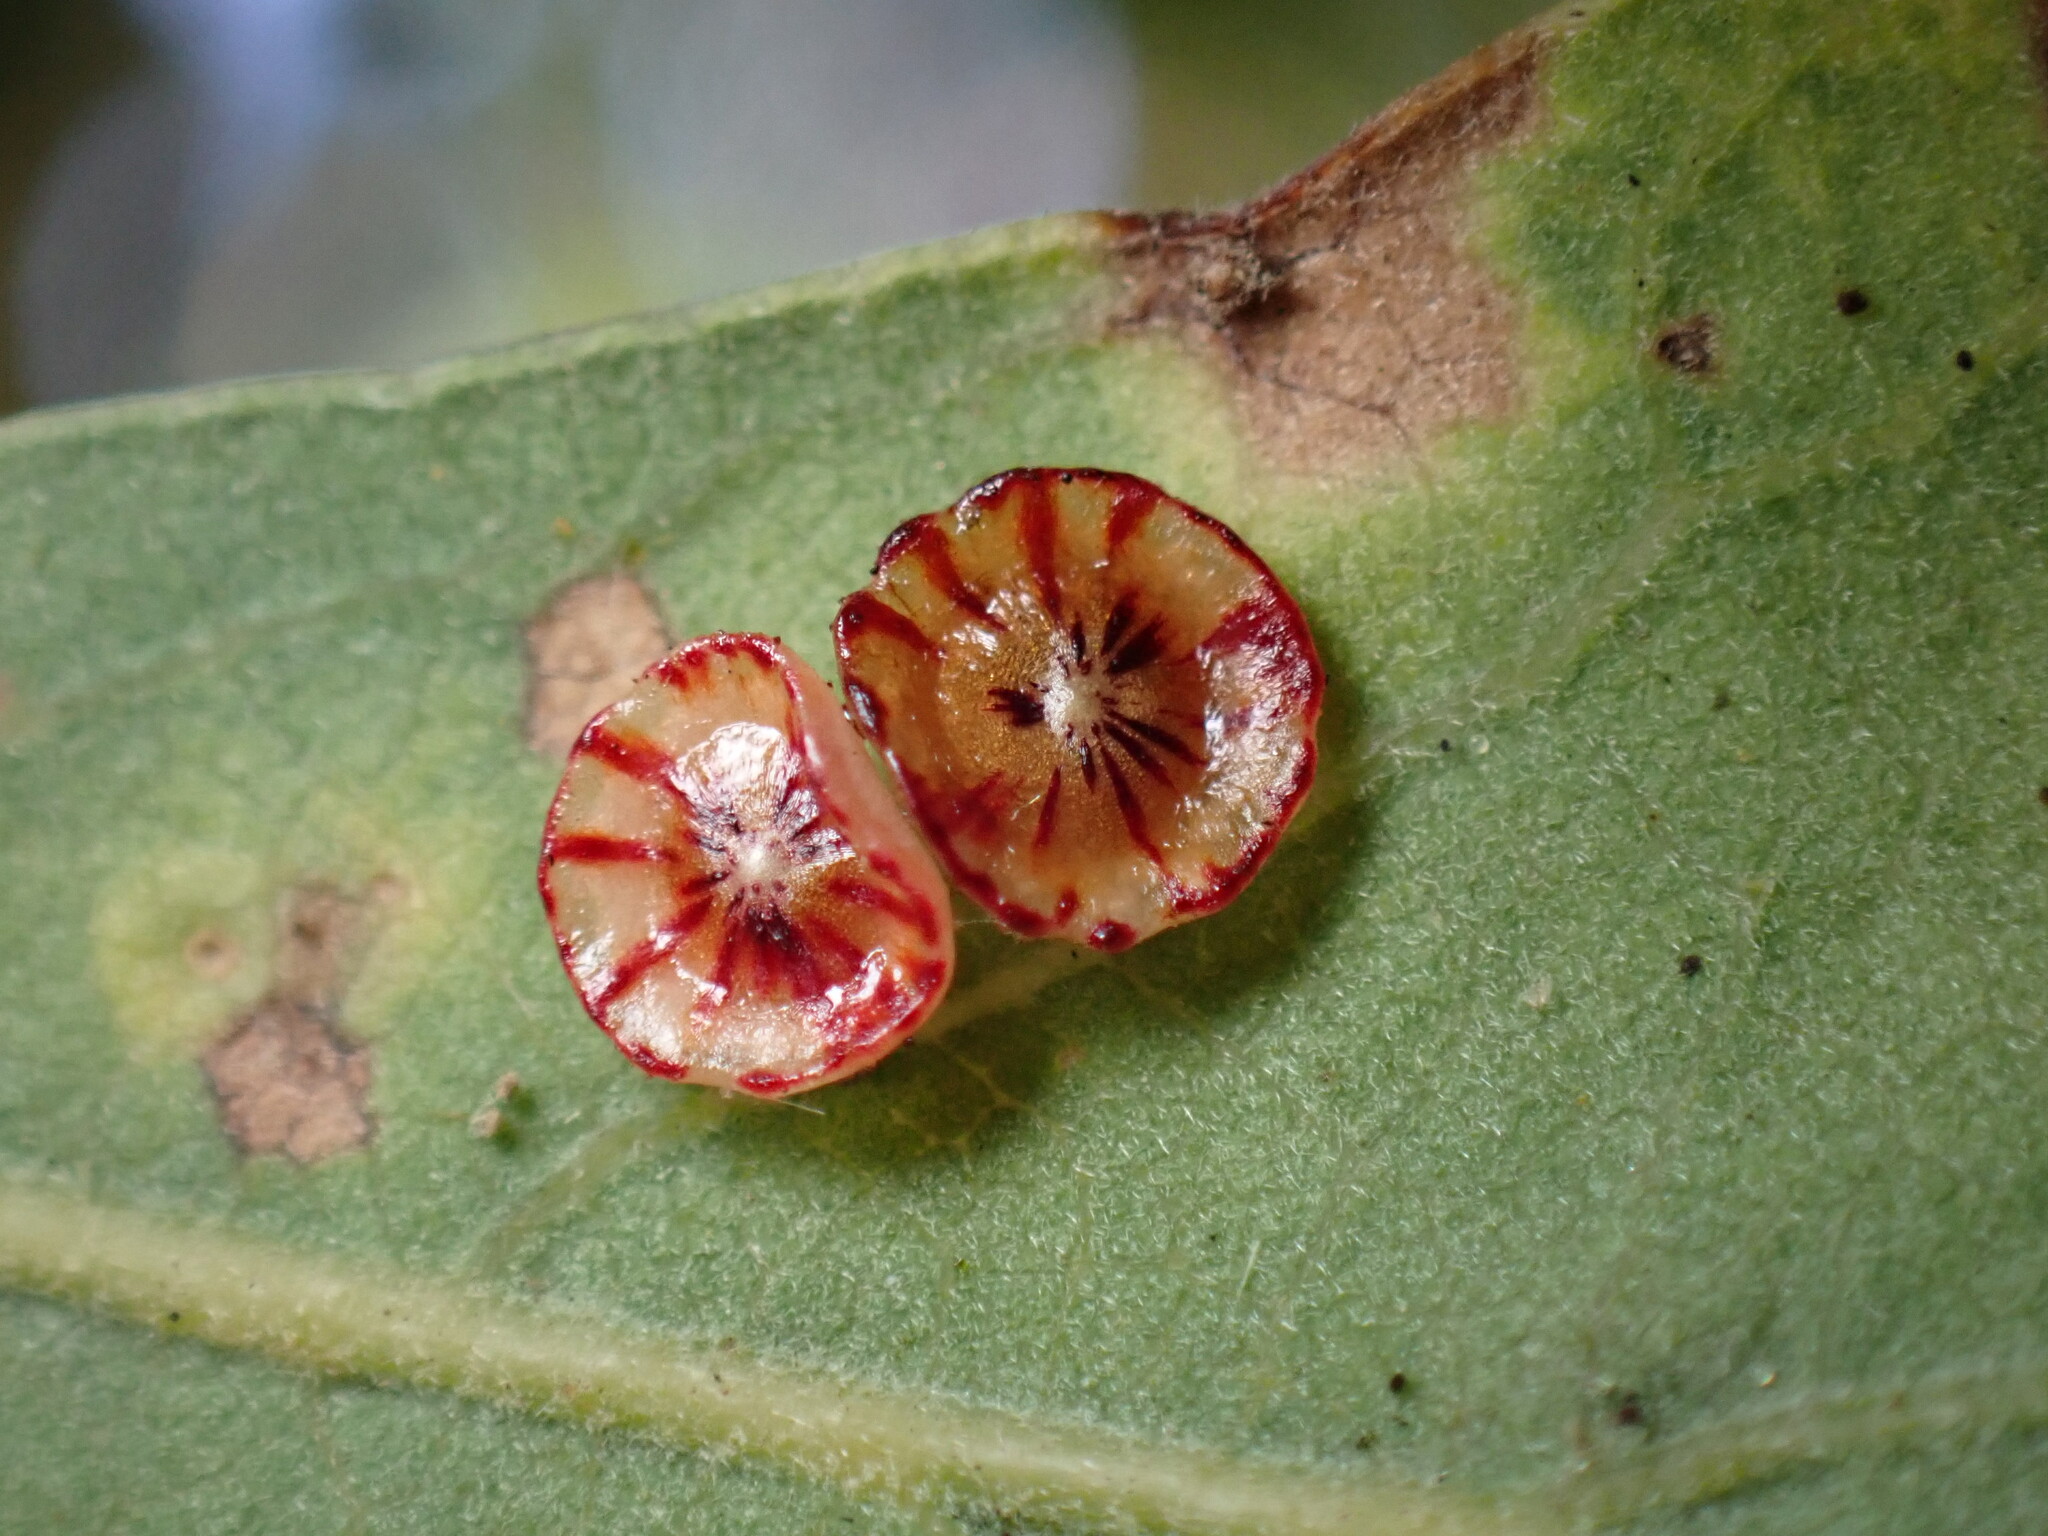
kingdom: Animalia
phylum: Arthropoda
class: Insecta
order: Hymenoptera
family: Cynipidae
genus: Andricus
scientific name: Andricus
